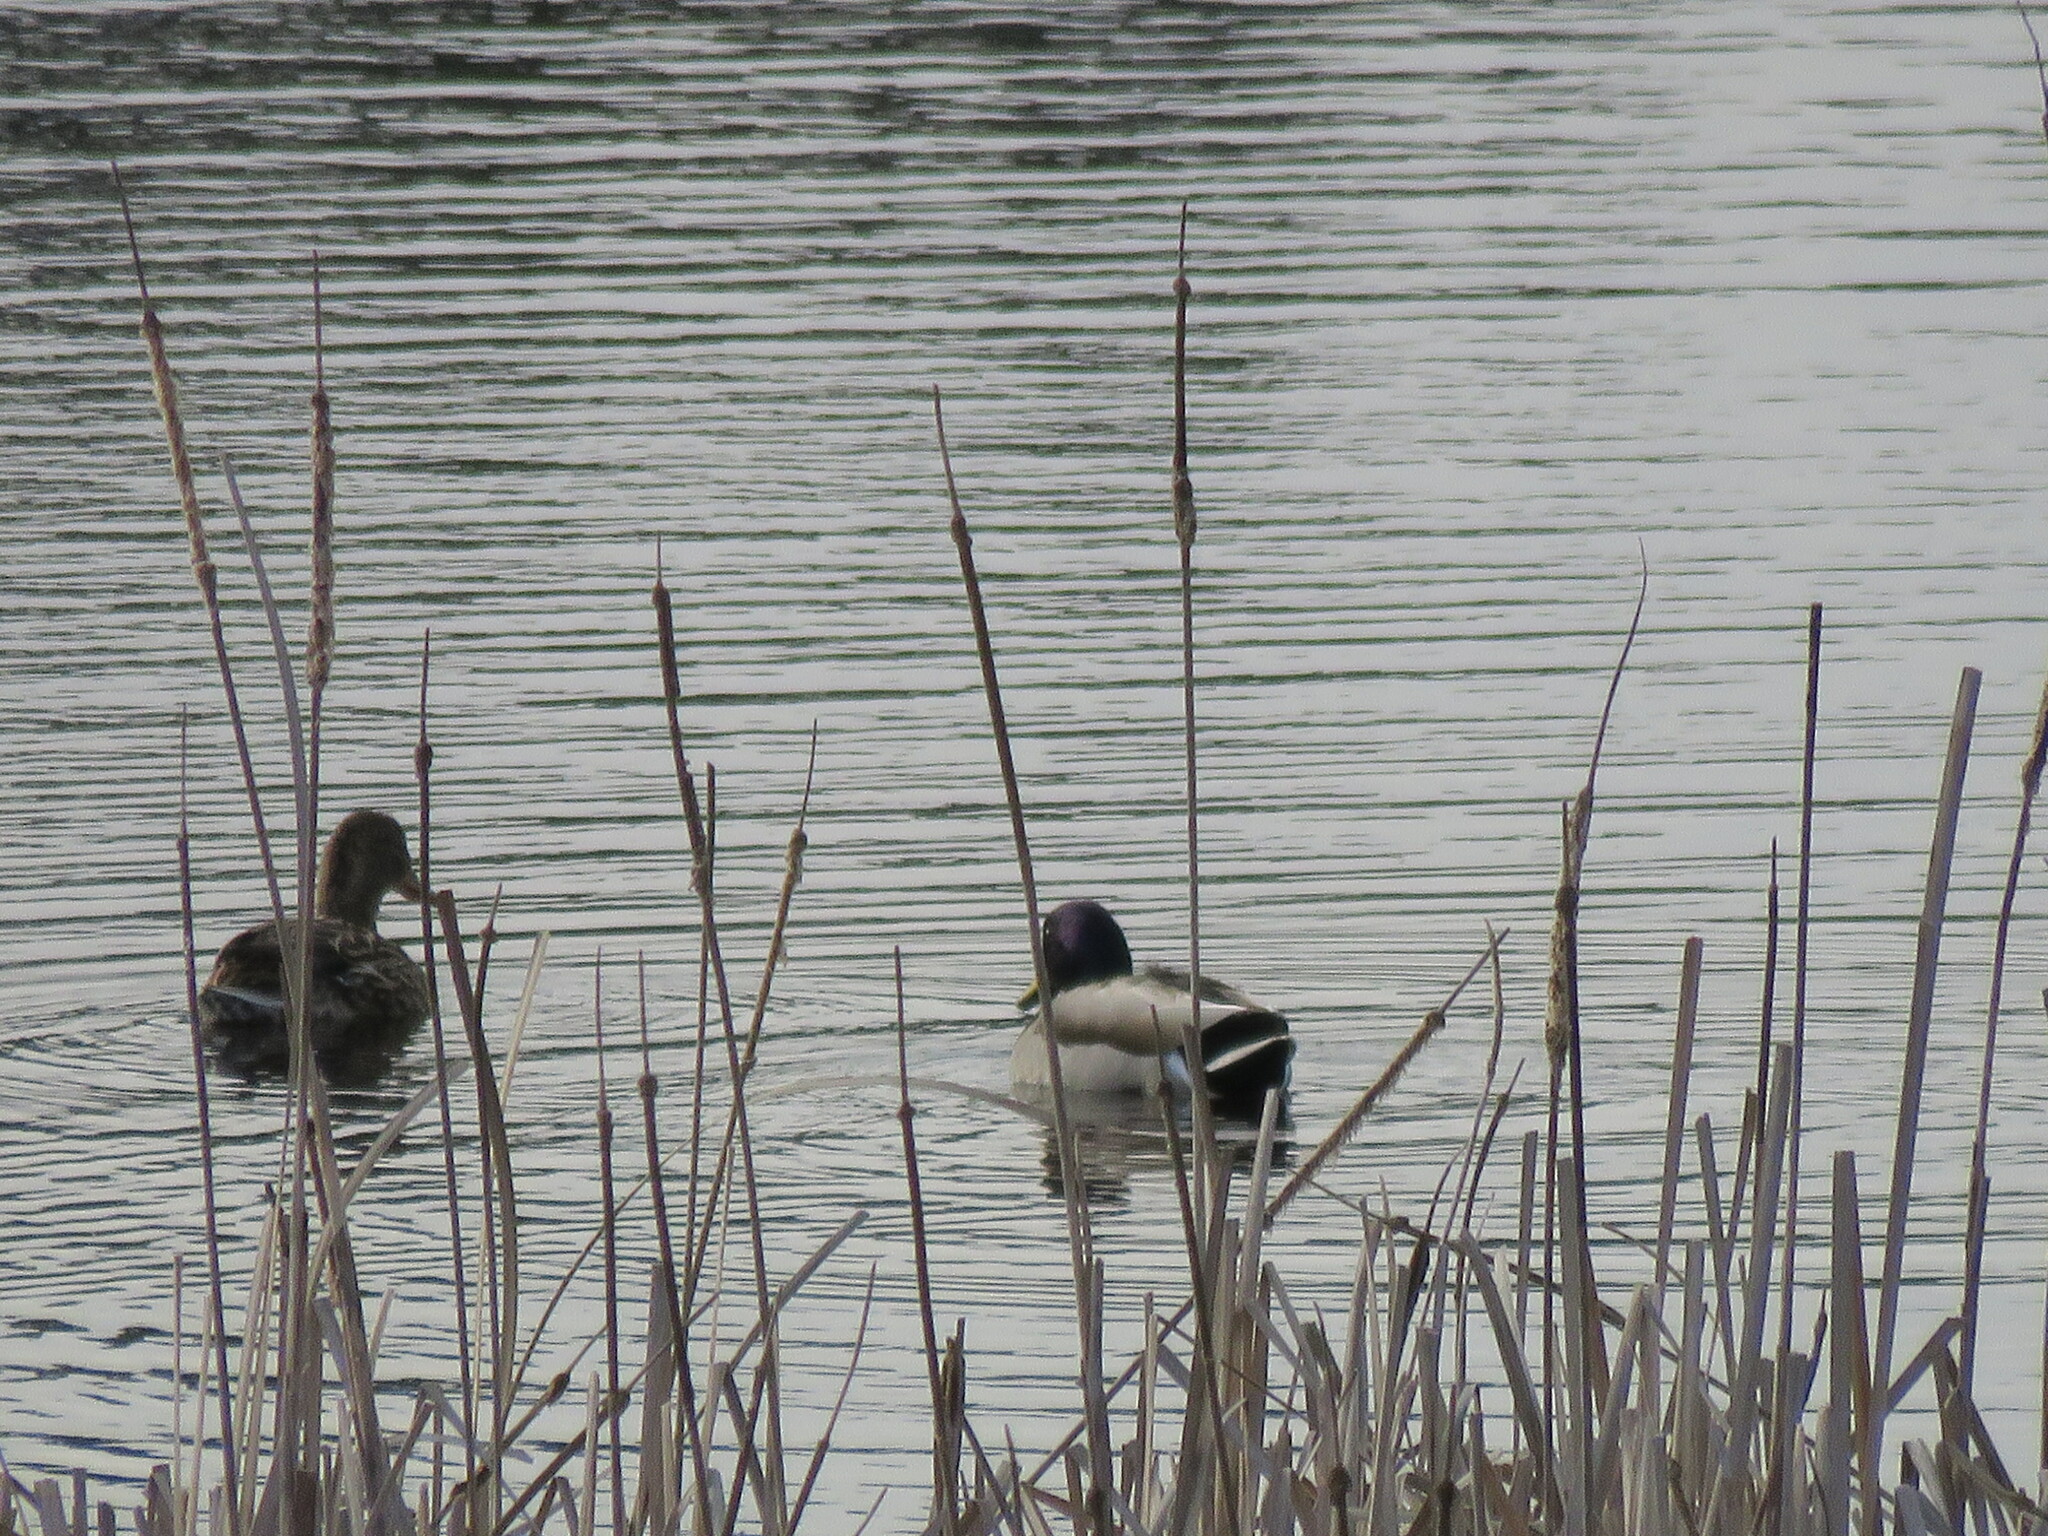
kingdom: Animalia
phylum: Chordata
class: Aves
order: Anseriformes
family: Anatidae
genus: Anas
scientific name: Anas platyrhynchos
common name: Mallard
